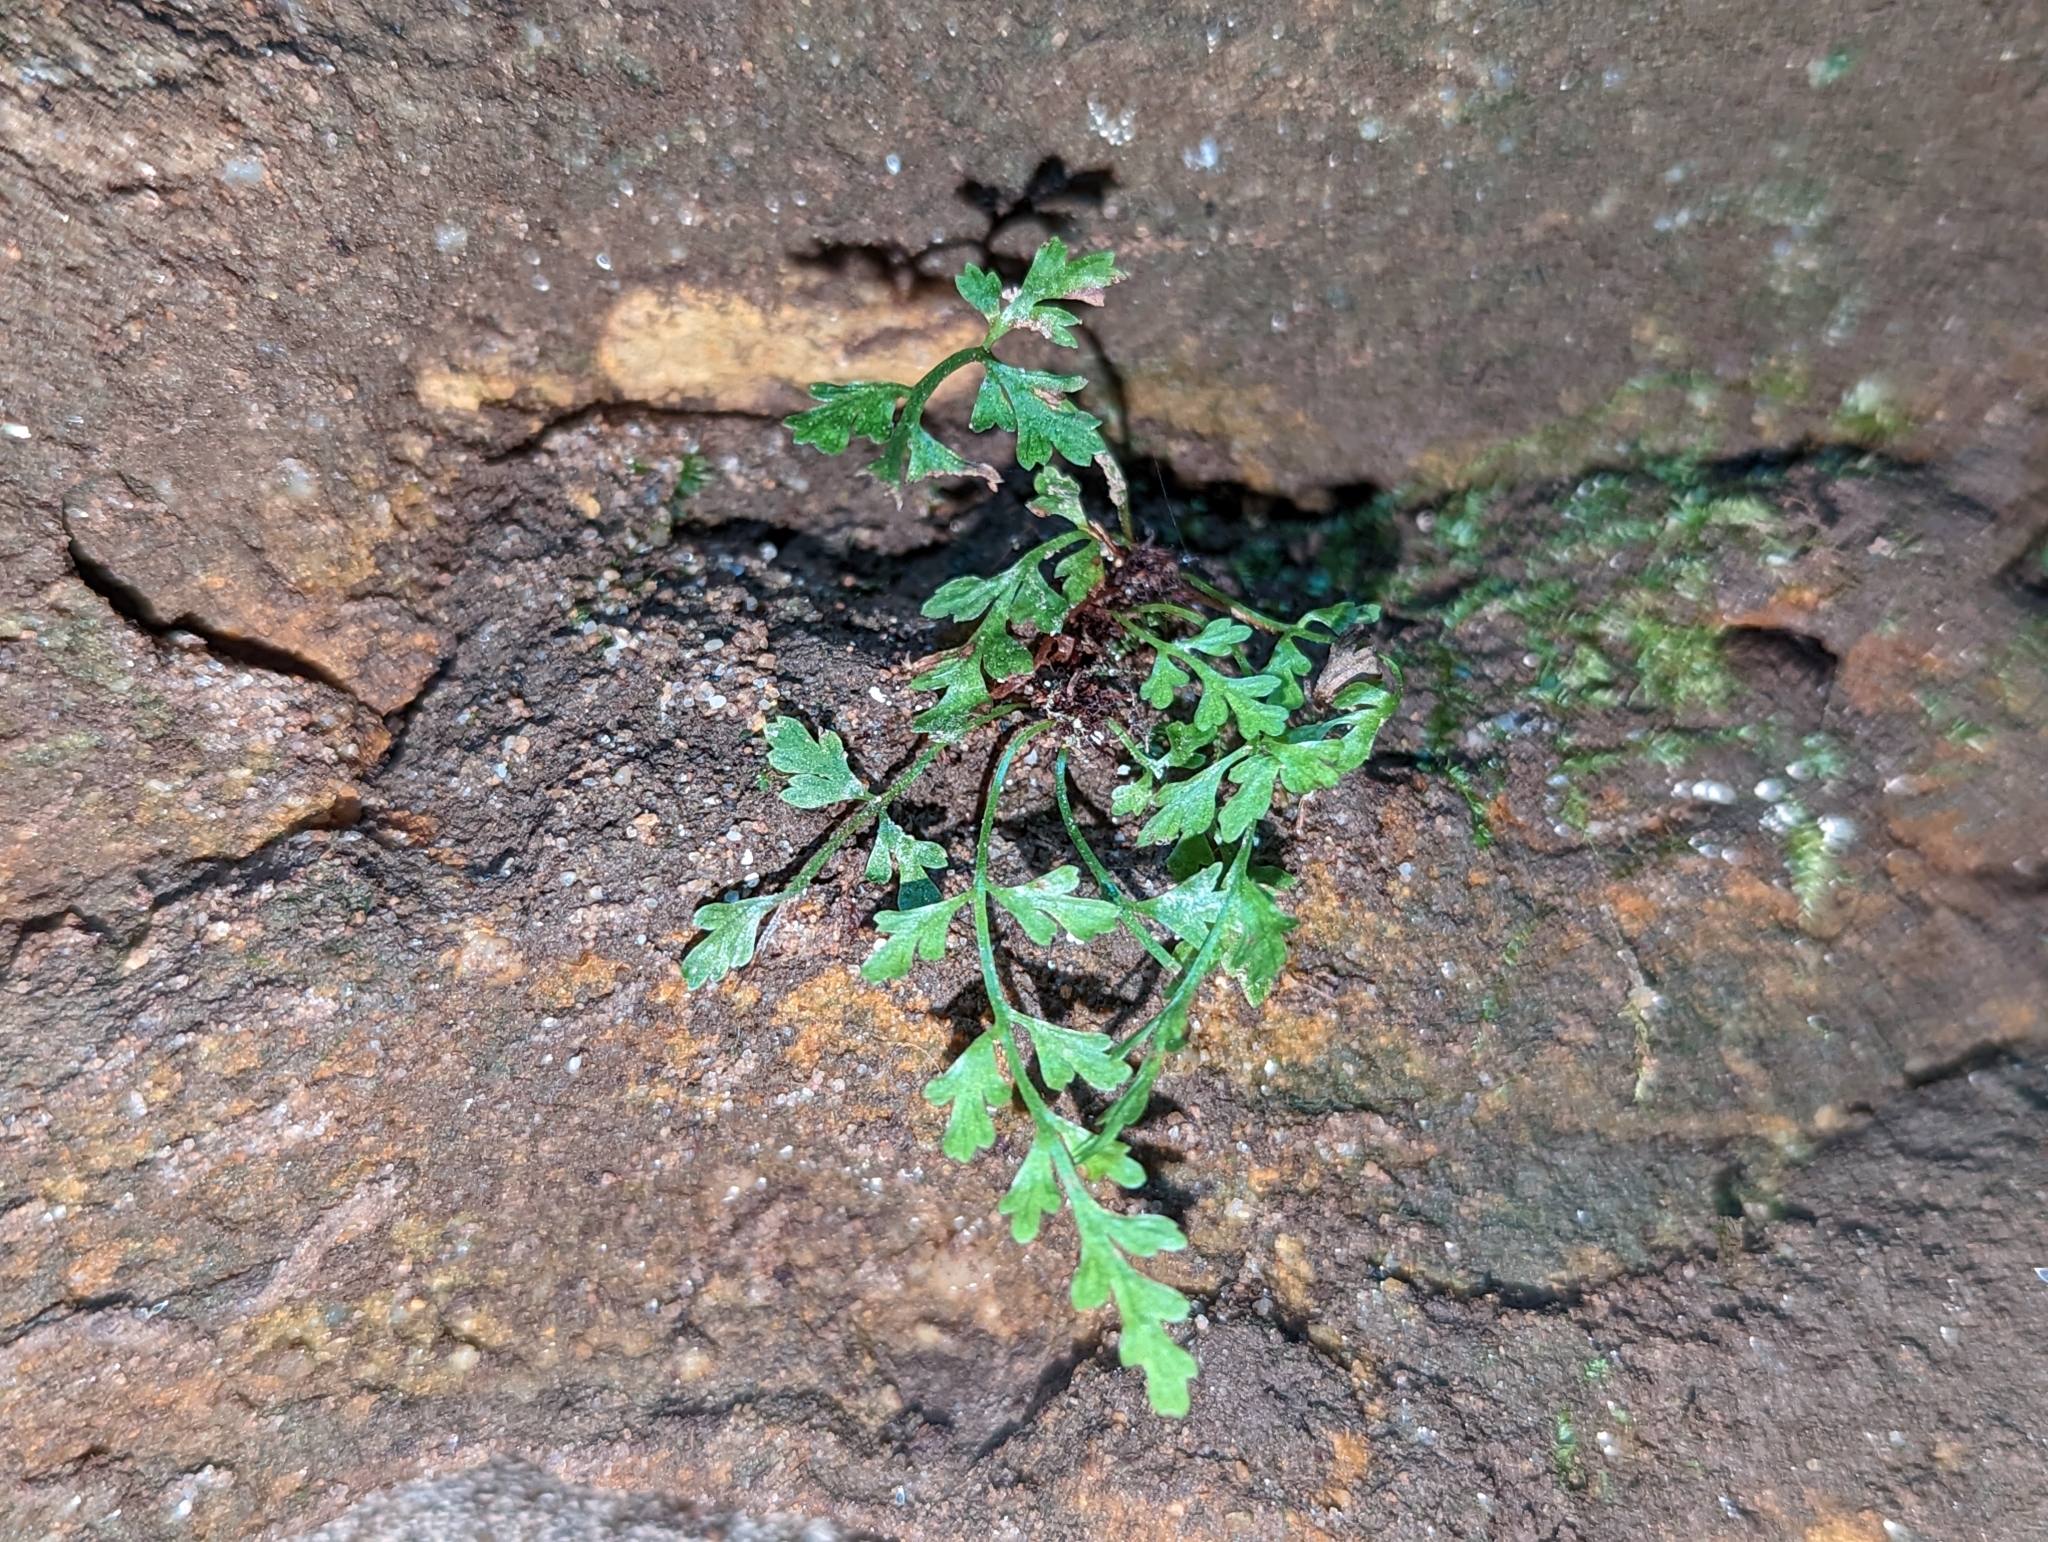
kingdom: Plantae
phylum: Tracheophyta
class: Polypodiopsida
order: Polypodiales
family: Aspleniaceae
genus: Asplenium
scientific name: Asplenium montanum
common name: Mountain spleenwort
